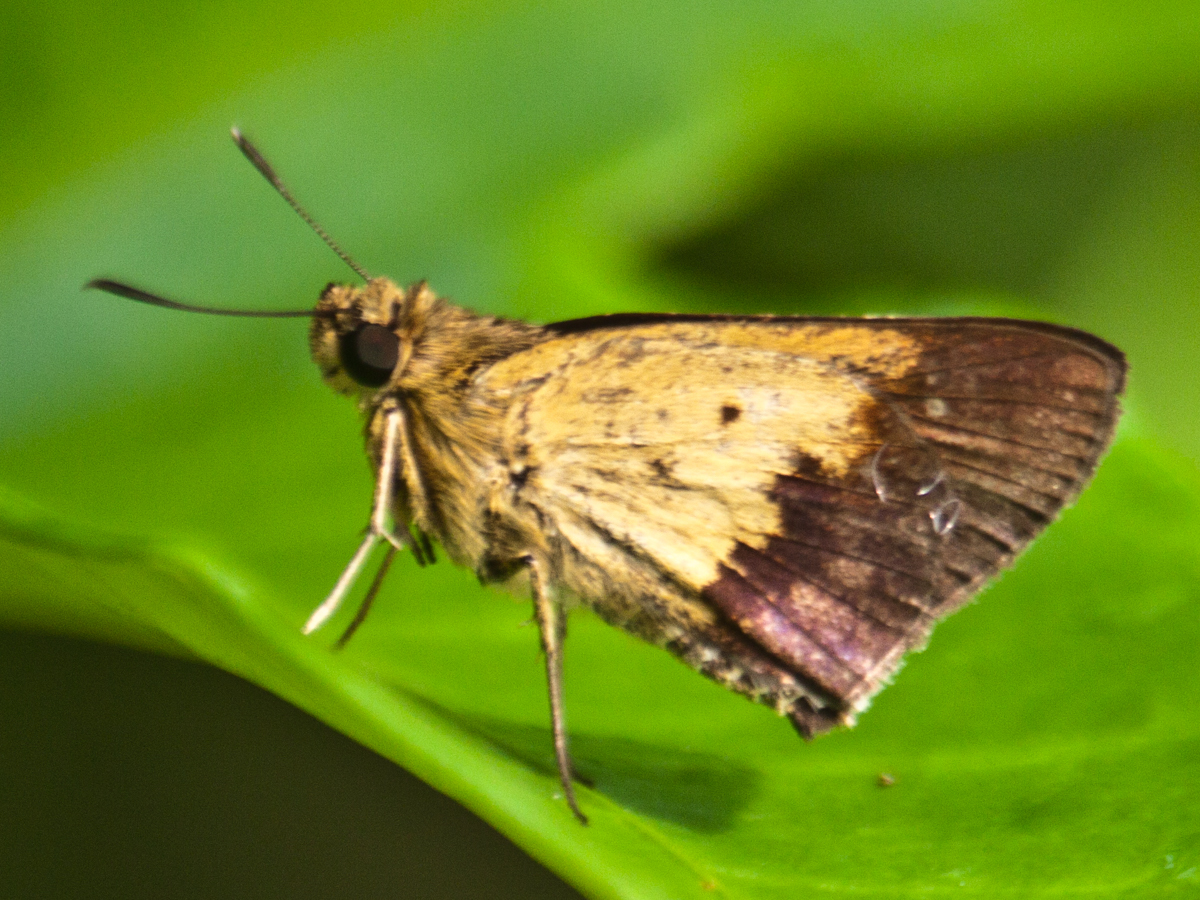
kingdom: Animalia
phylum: Arthropoda
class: Insecta
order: Lepidoptera
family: Hesperiidae
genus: Zographetus
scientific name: Zographetus satwa
